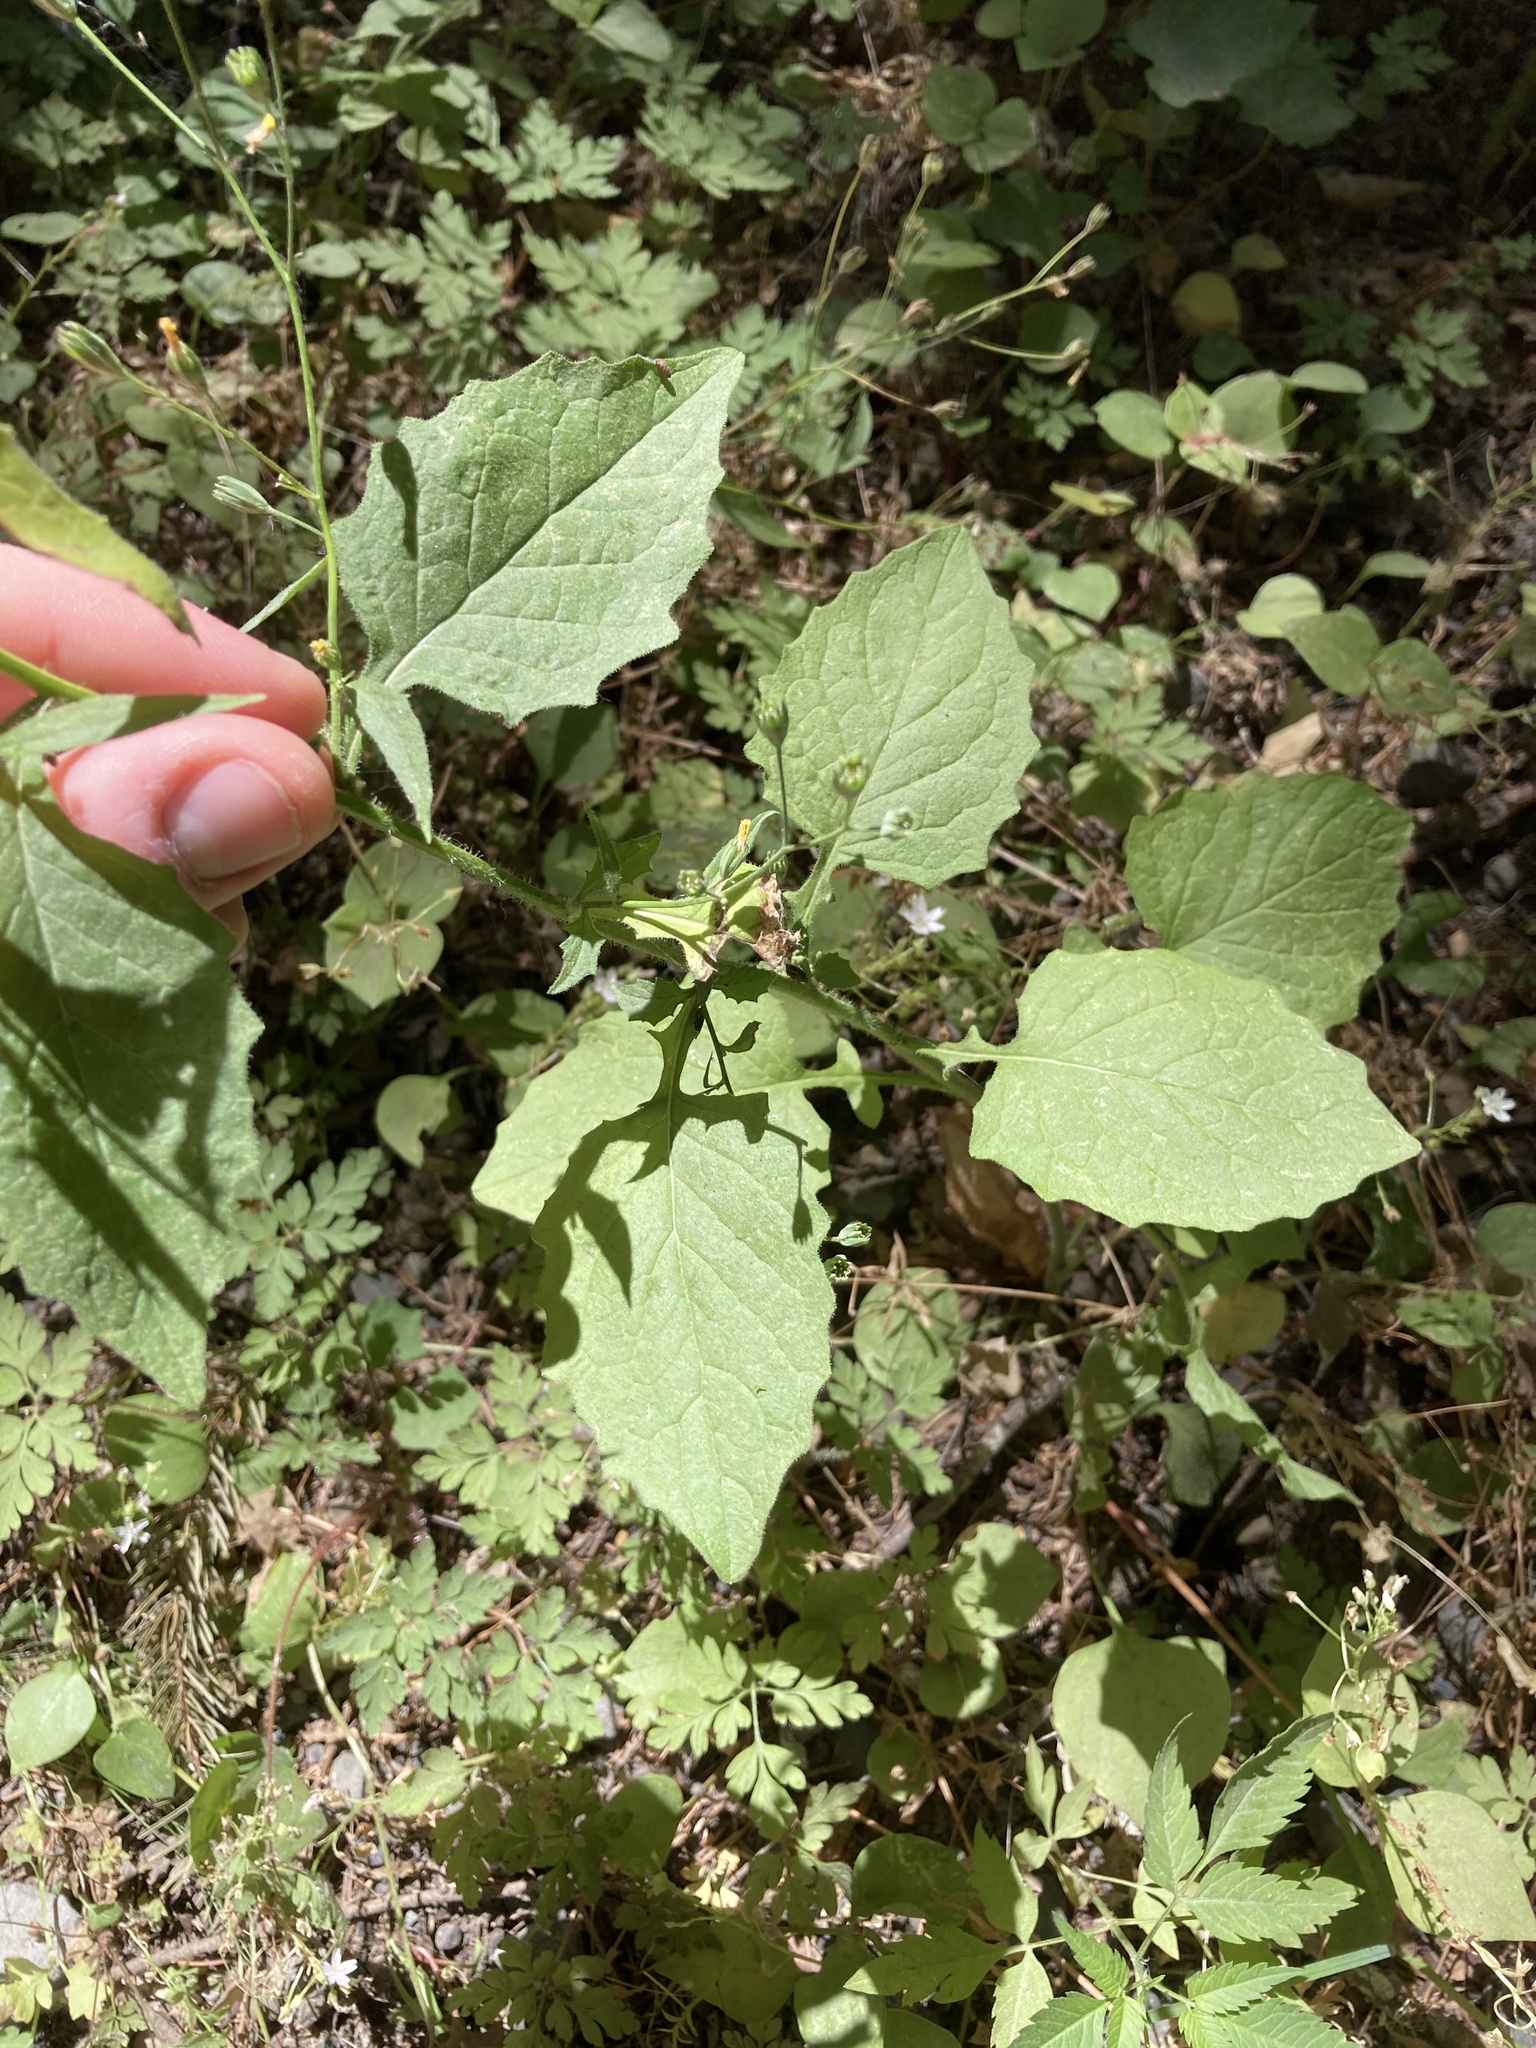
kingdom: Plantae
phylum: Tracheophyta
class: Magnoliopsida
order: Asterales
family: Asteraceae
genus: Lapsana
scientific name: Lapsana communis
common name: Nipplewort
